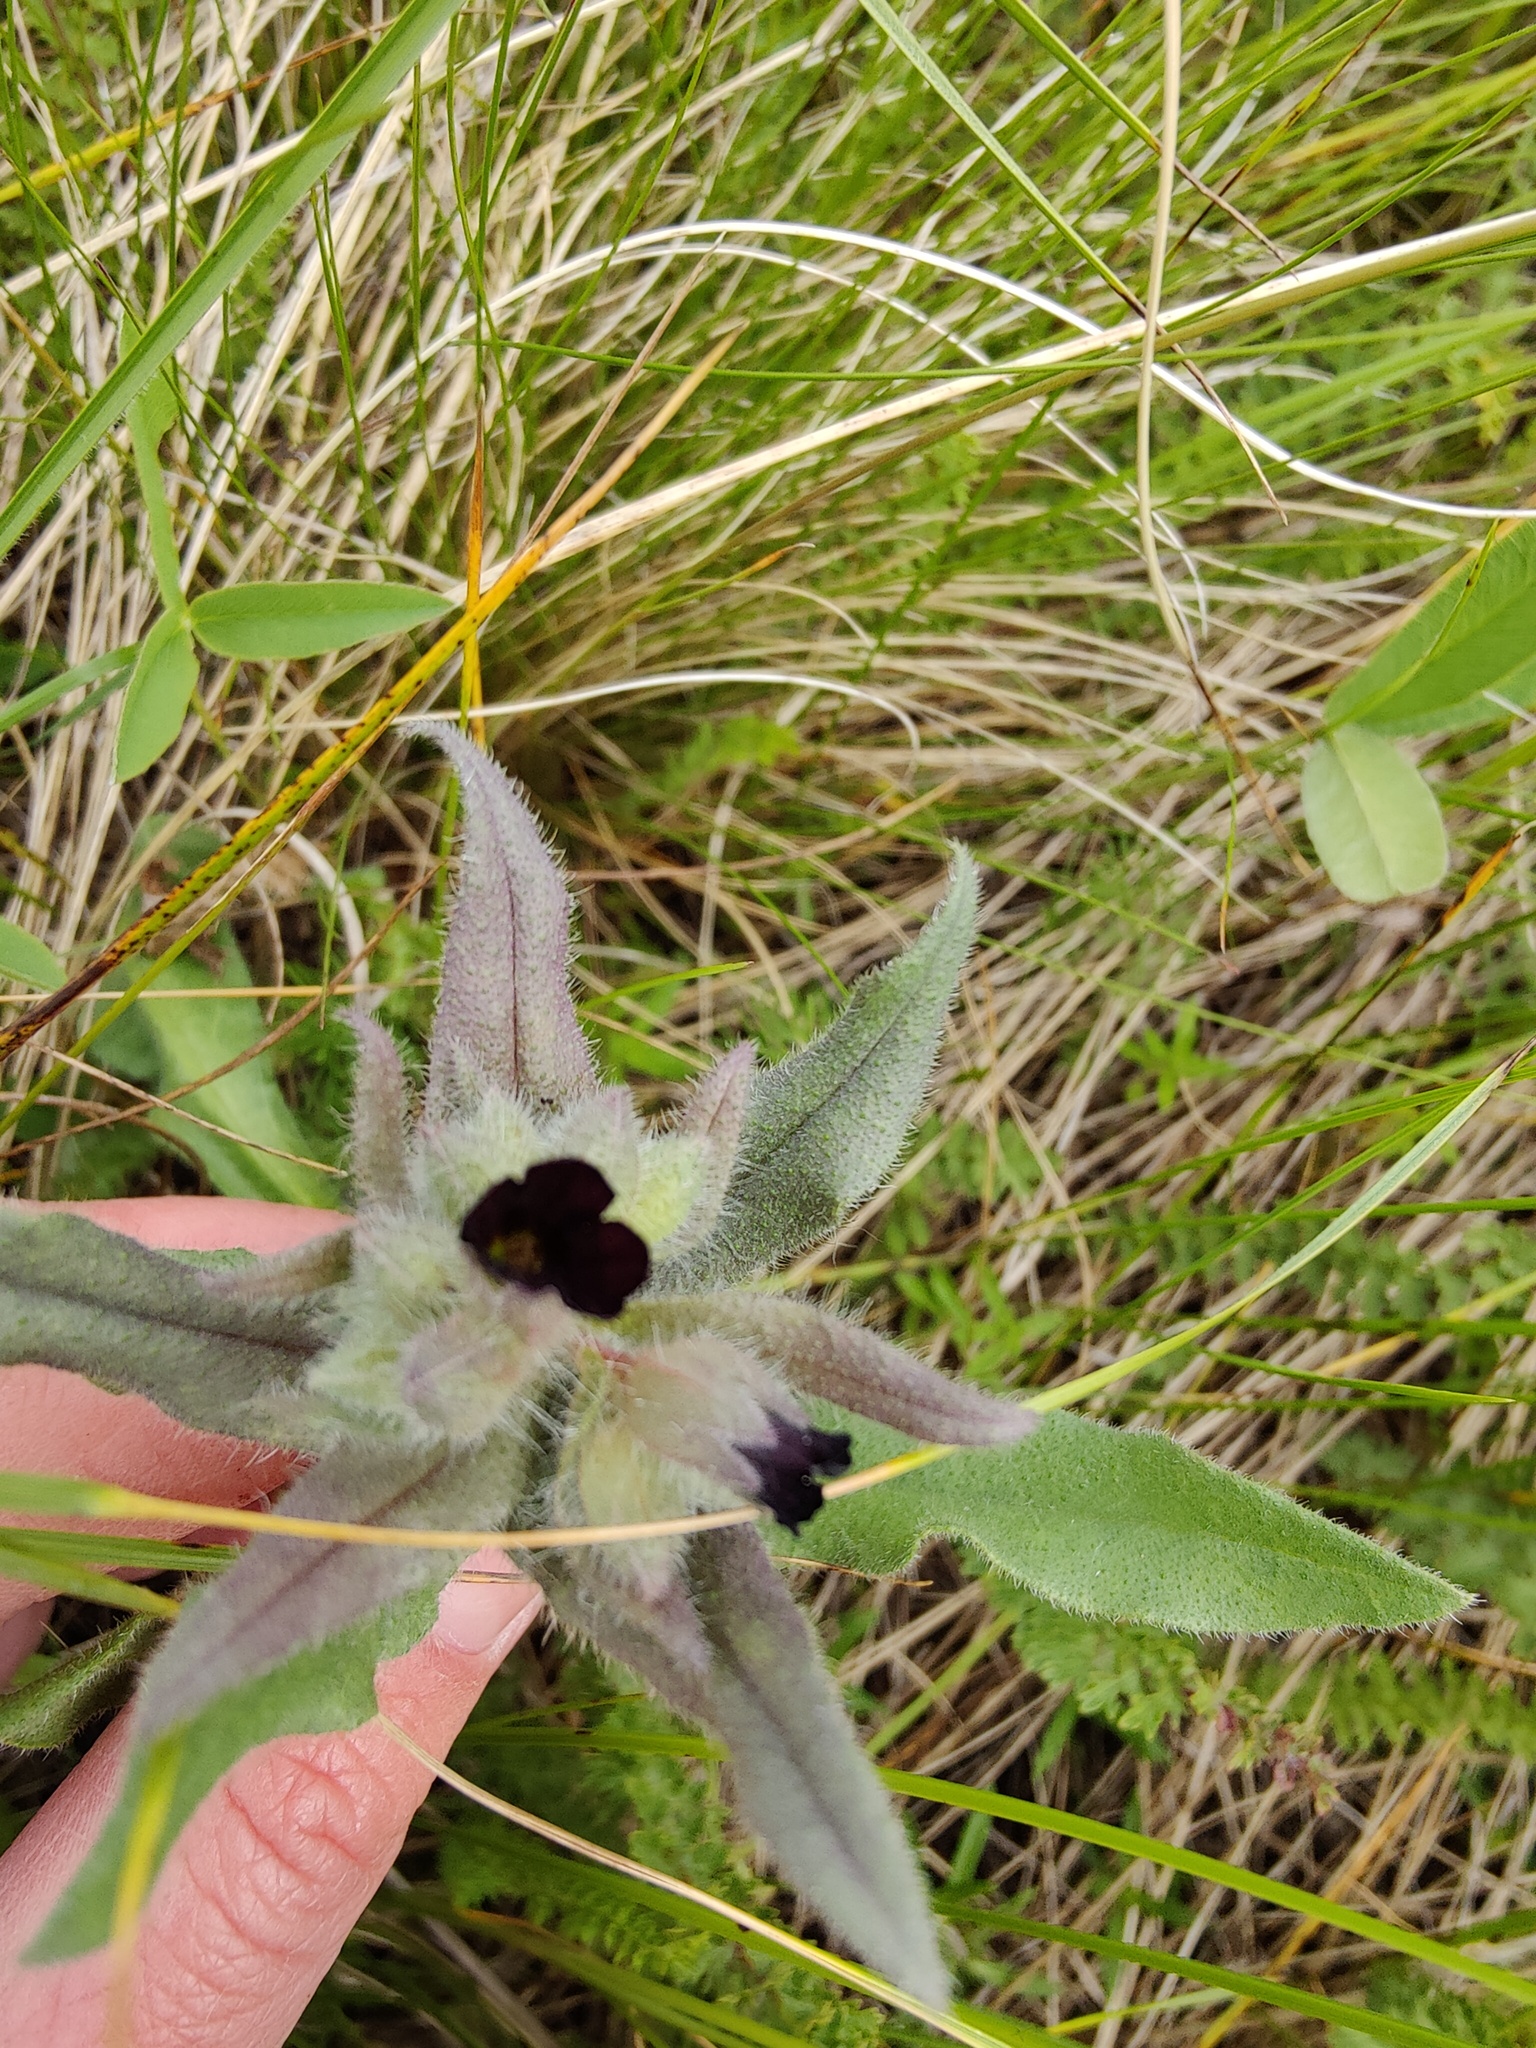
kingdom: Plantae
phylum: Tracheophyta
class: Magnoliopsida
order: Boraginales
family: Boraginaceae
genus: Nonea
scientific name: Nonea pulla
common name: Brown nonea
